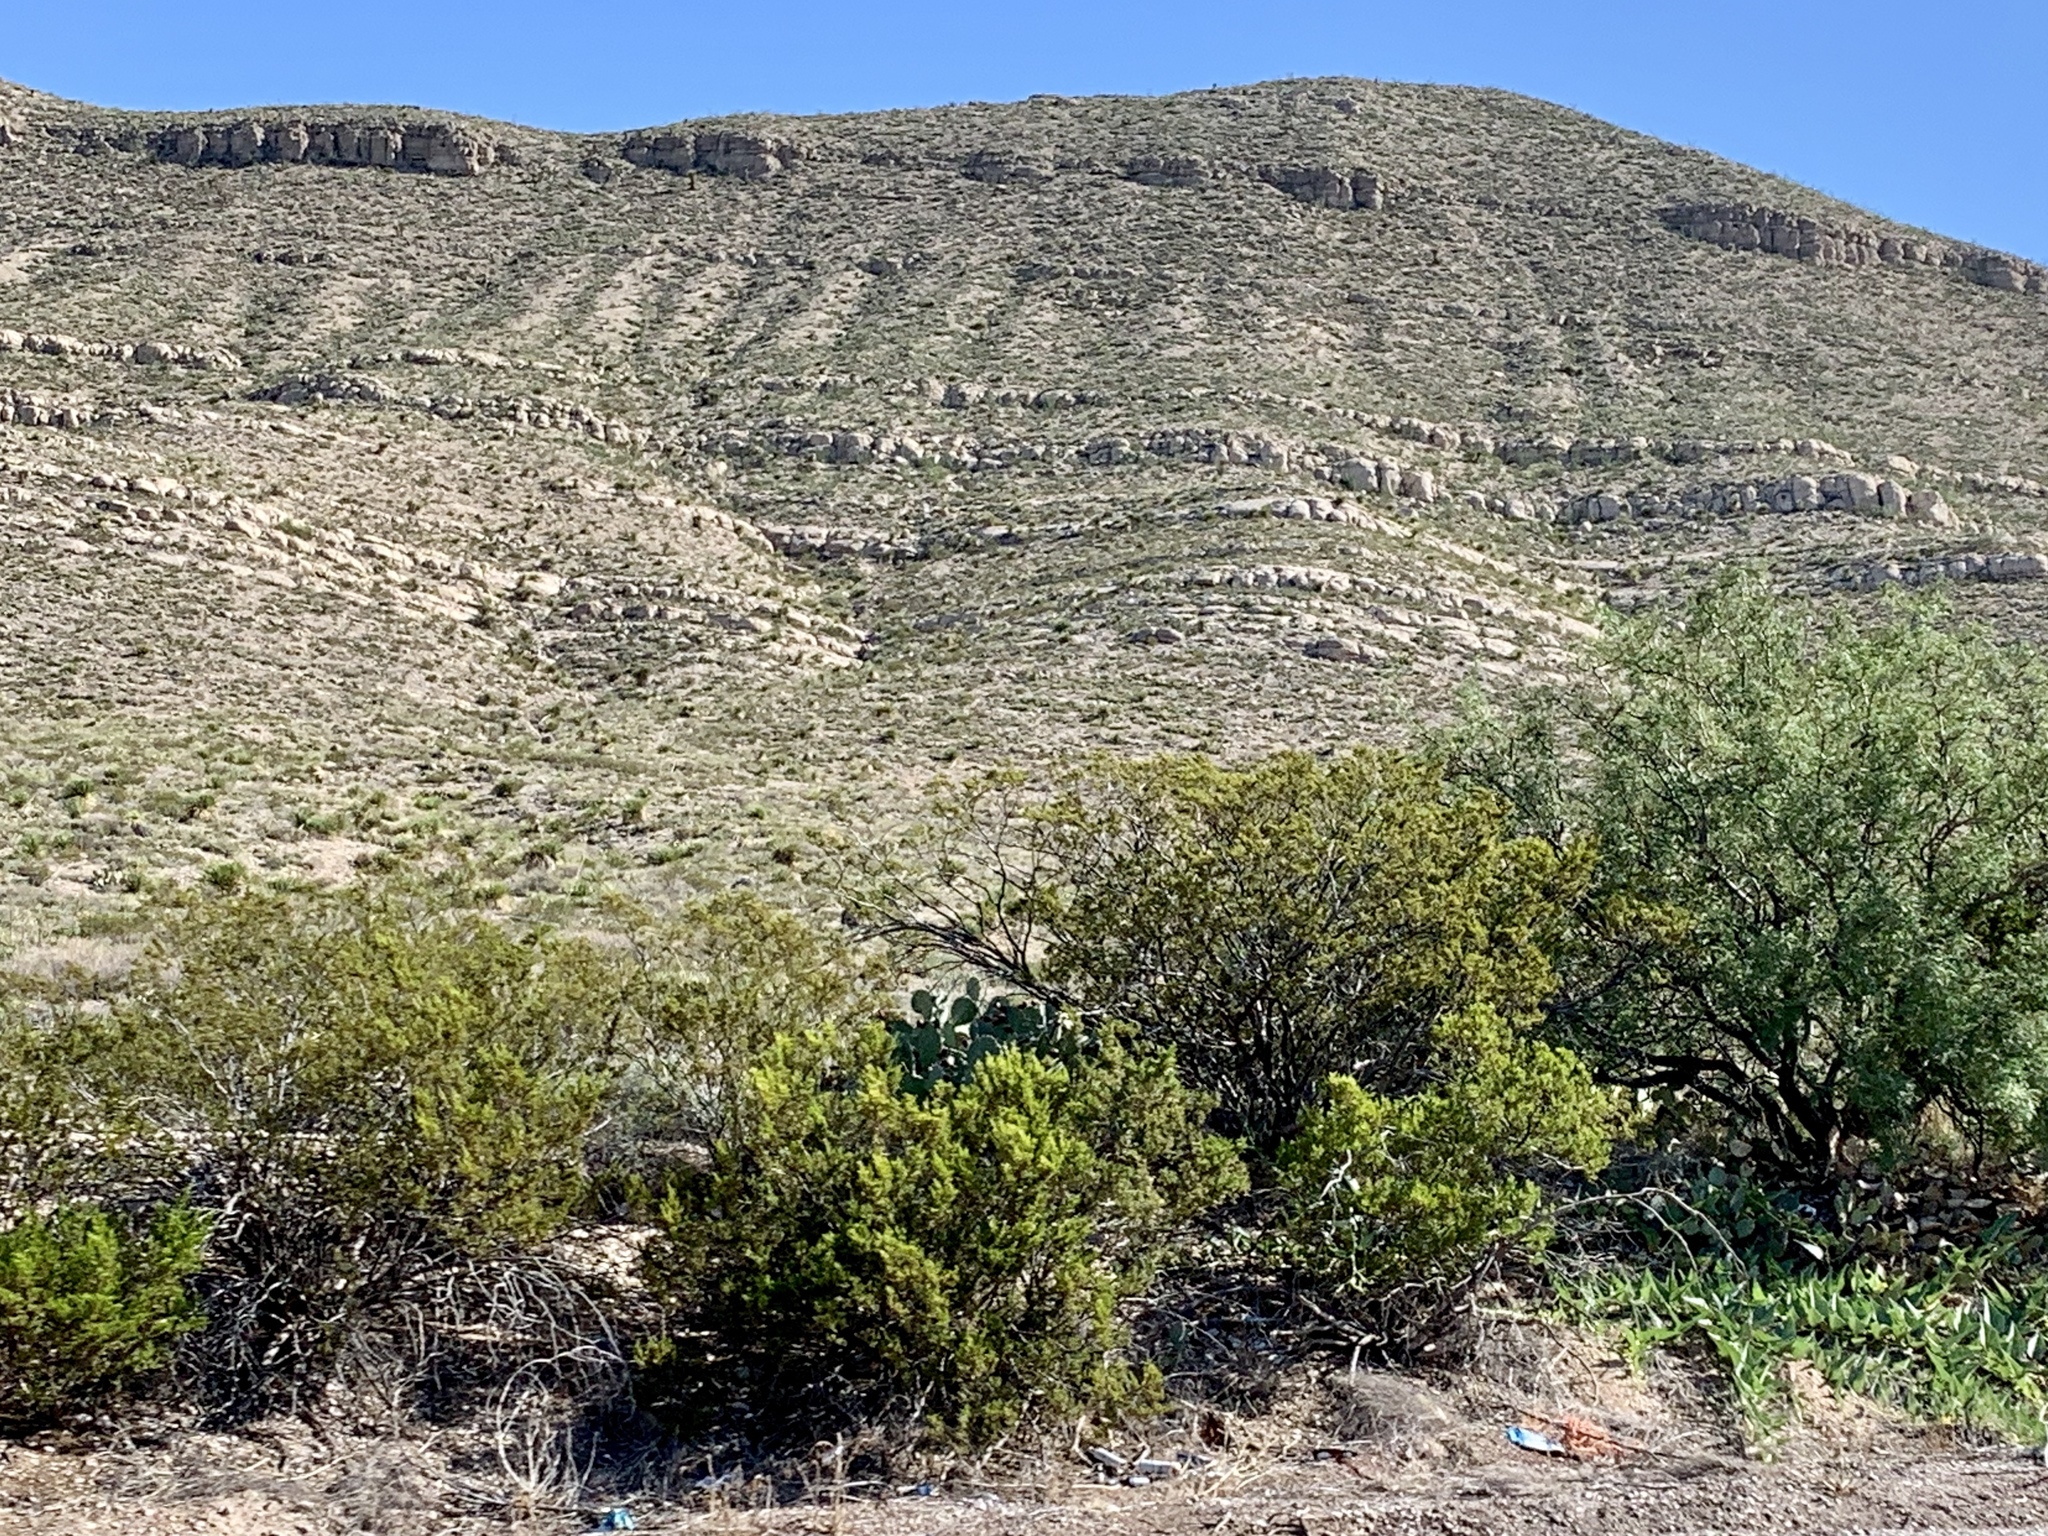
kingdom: Plantae
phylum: Tracheophyta
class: Magnoliopsida
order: Zygophyllales
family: Zygophyllaceae
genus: Larrea
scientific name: Larrea tridentata
